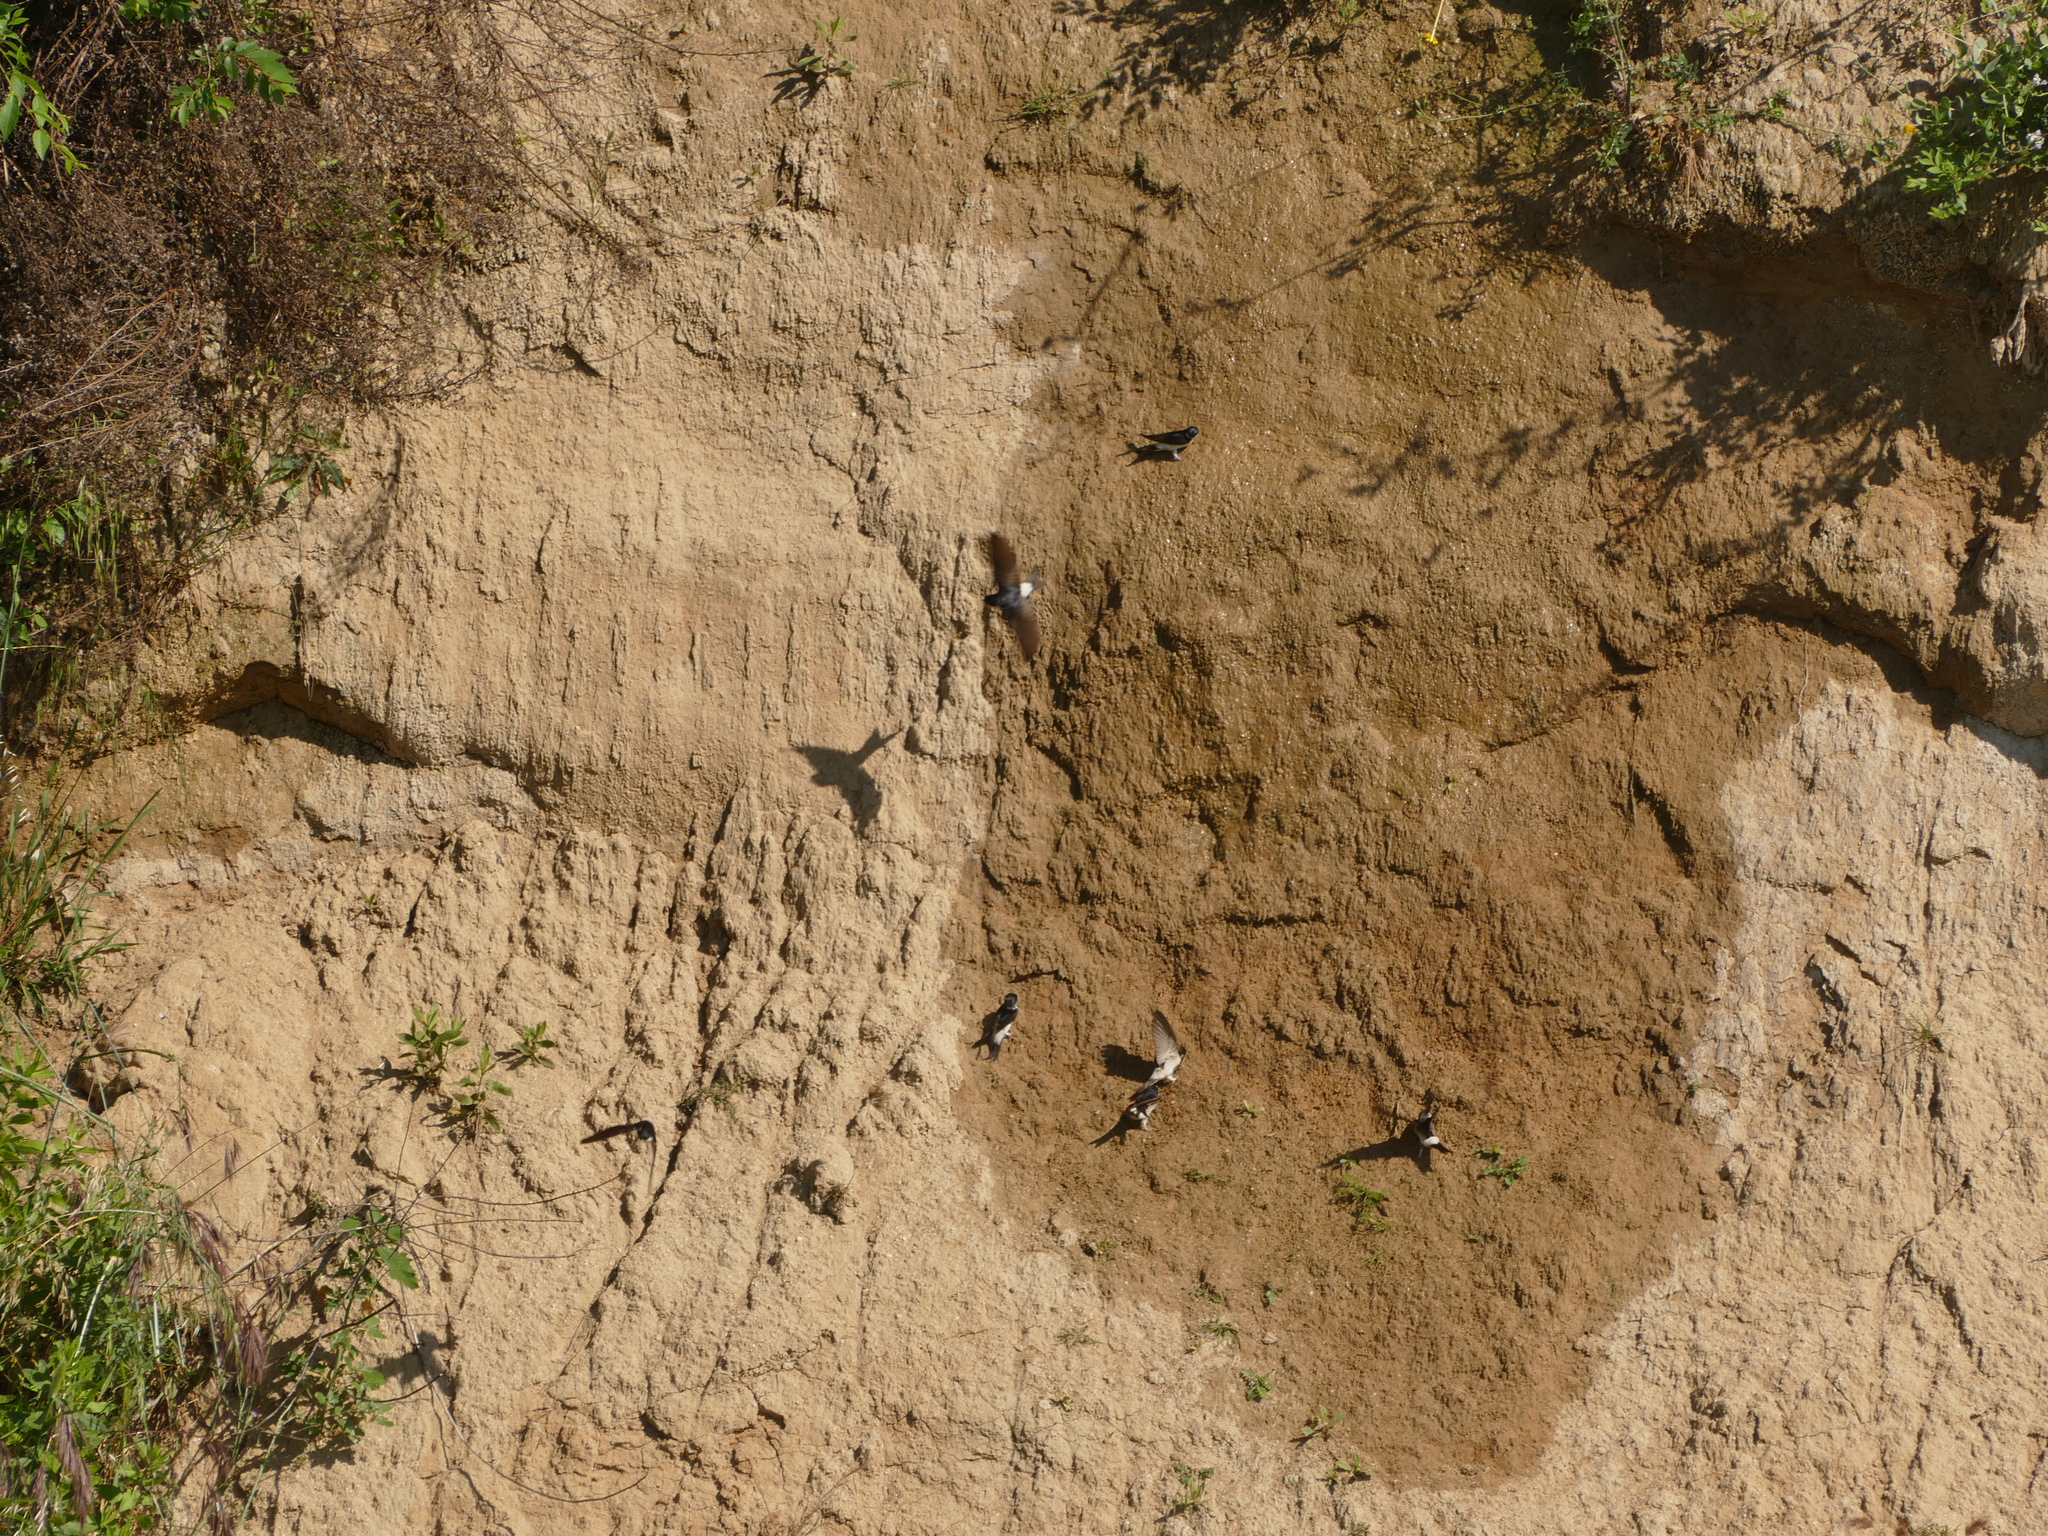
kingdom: Animalia
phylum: Chordata
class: Aves
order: Passeriformes
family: Hirundinidae
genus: Delichon
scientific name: Delichon urbicum
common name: Common house martin
